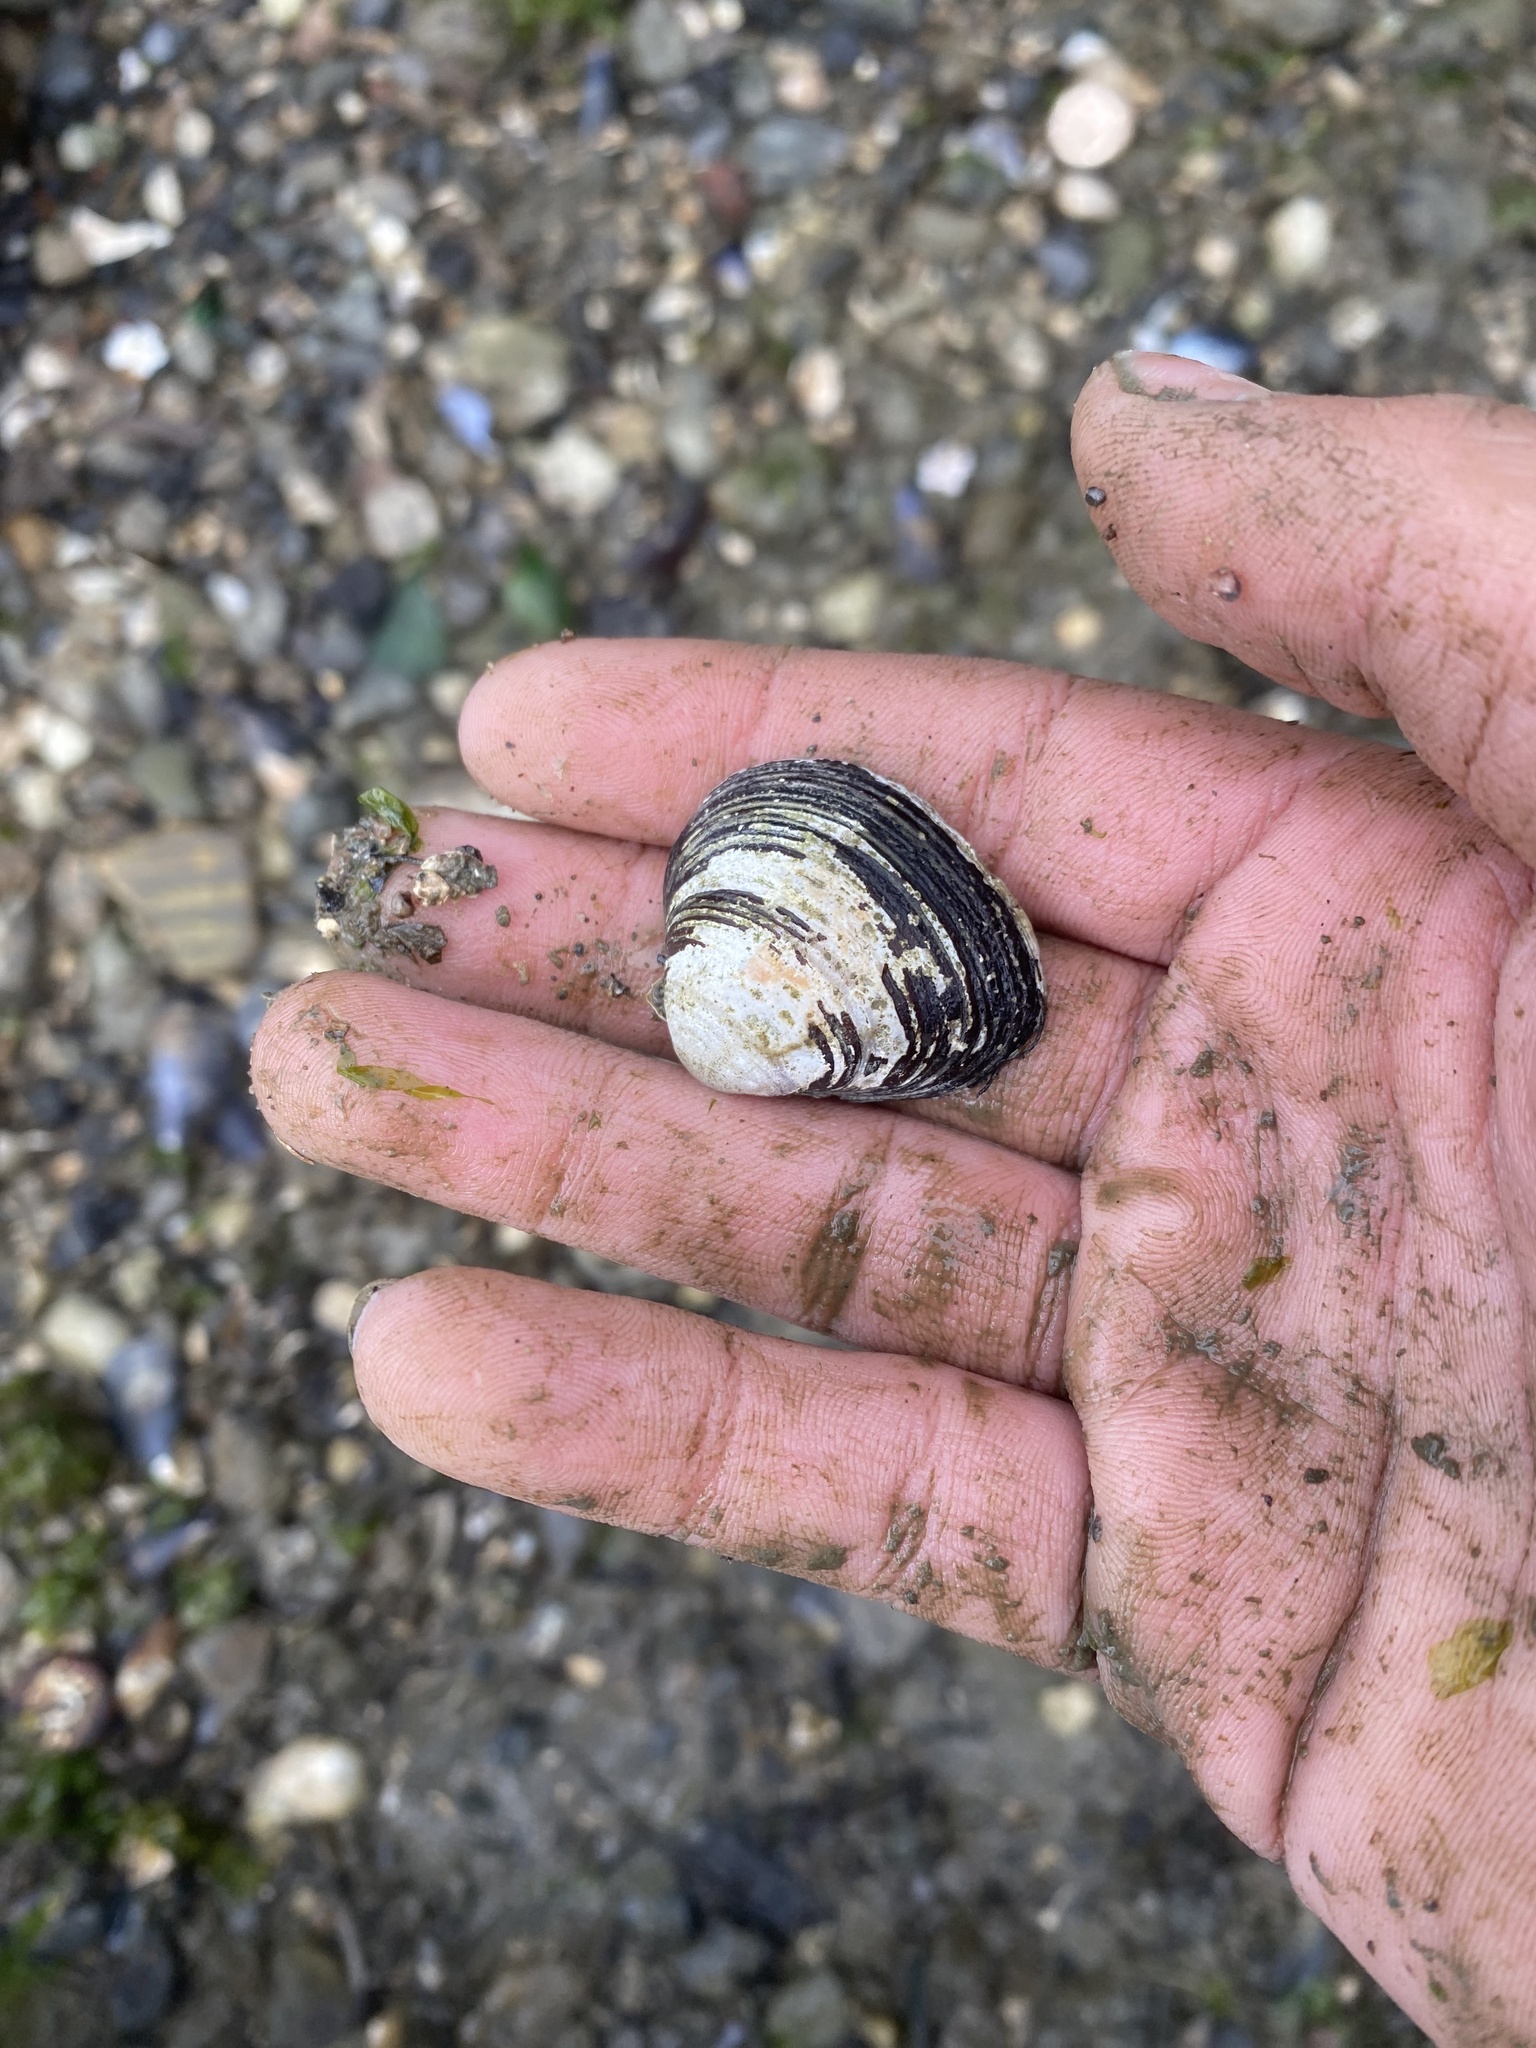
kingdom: Animalia
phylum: Mollusca
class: Bivalvia
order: Venerida
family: Cyrenidae
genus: Corbicula
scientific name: Corbicula fluminea
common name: Asian clam
